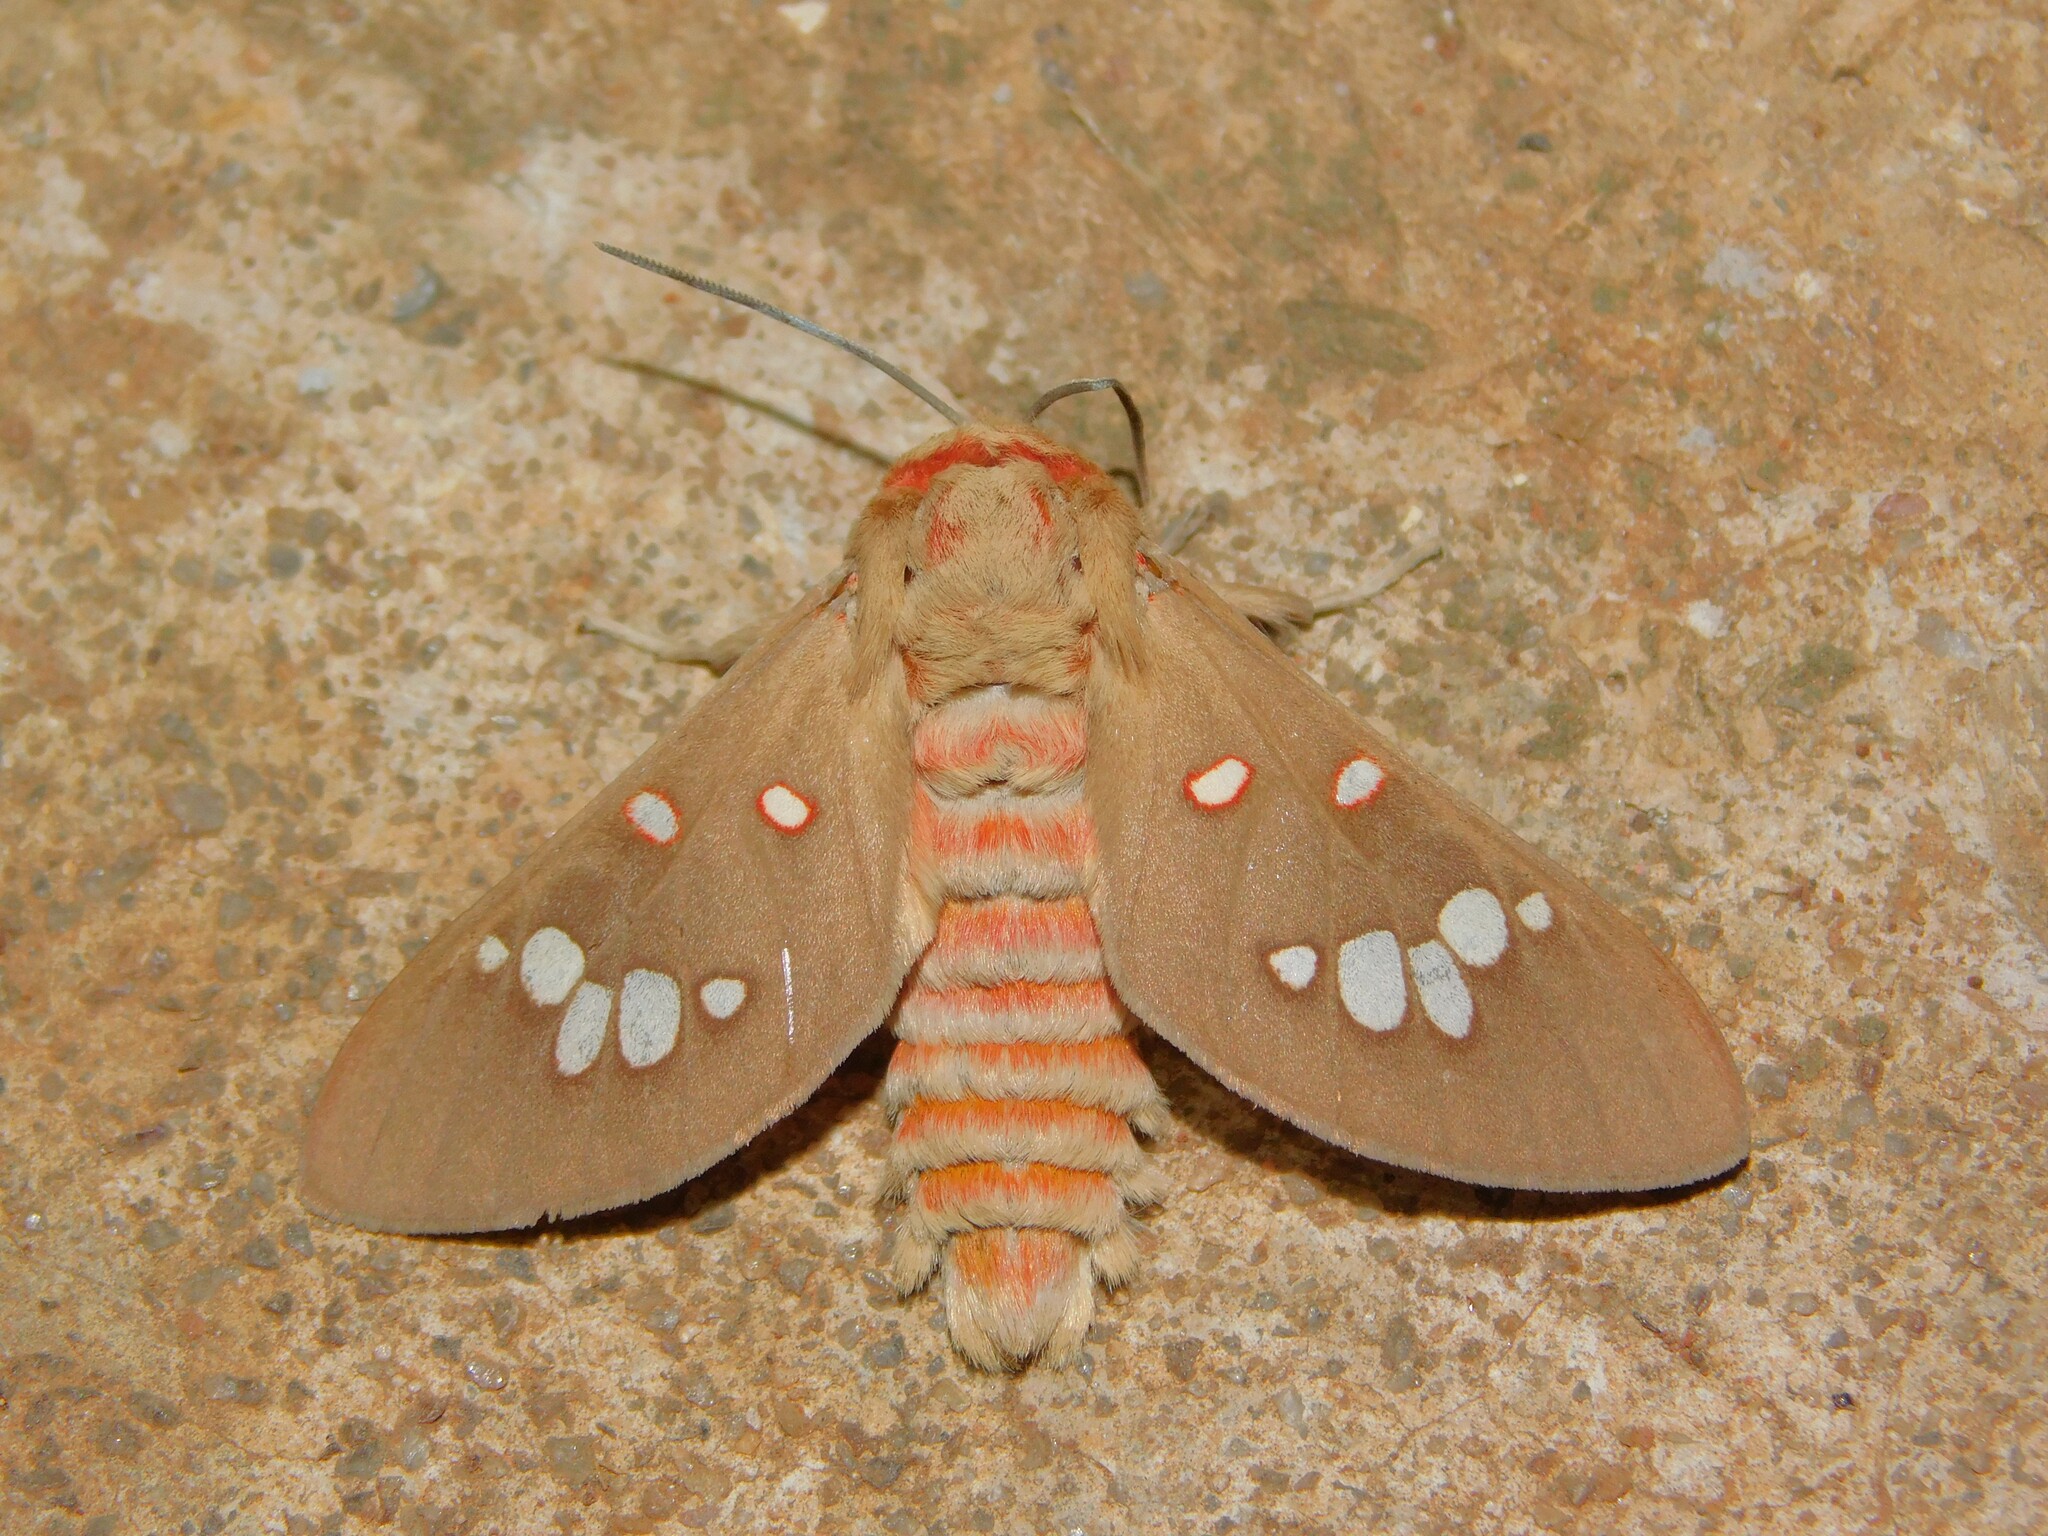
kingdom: Animalia
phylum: Arthropoda
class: Insecta
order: Lepidoptera
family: Erebidae
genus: Balacra
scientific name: Balacra preussi
